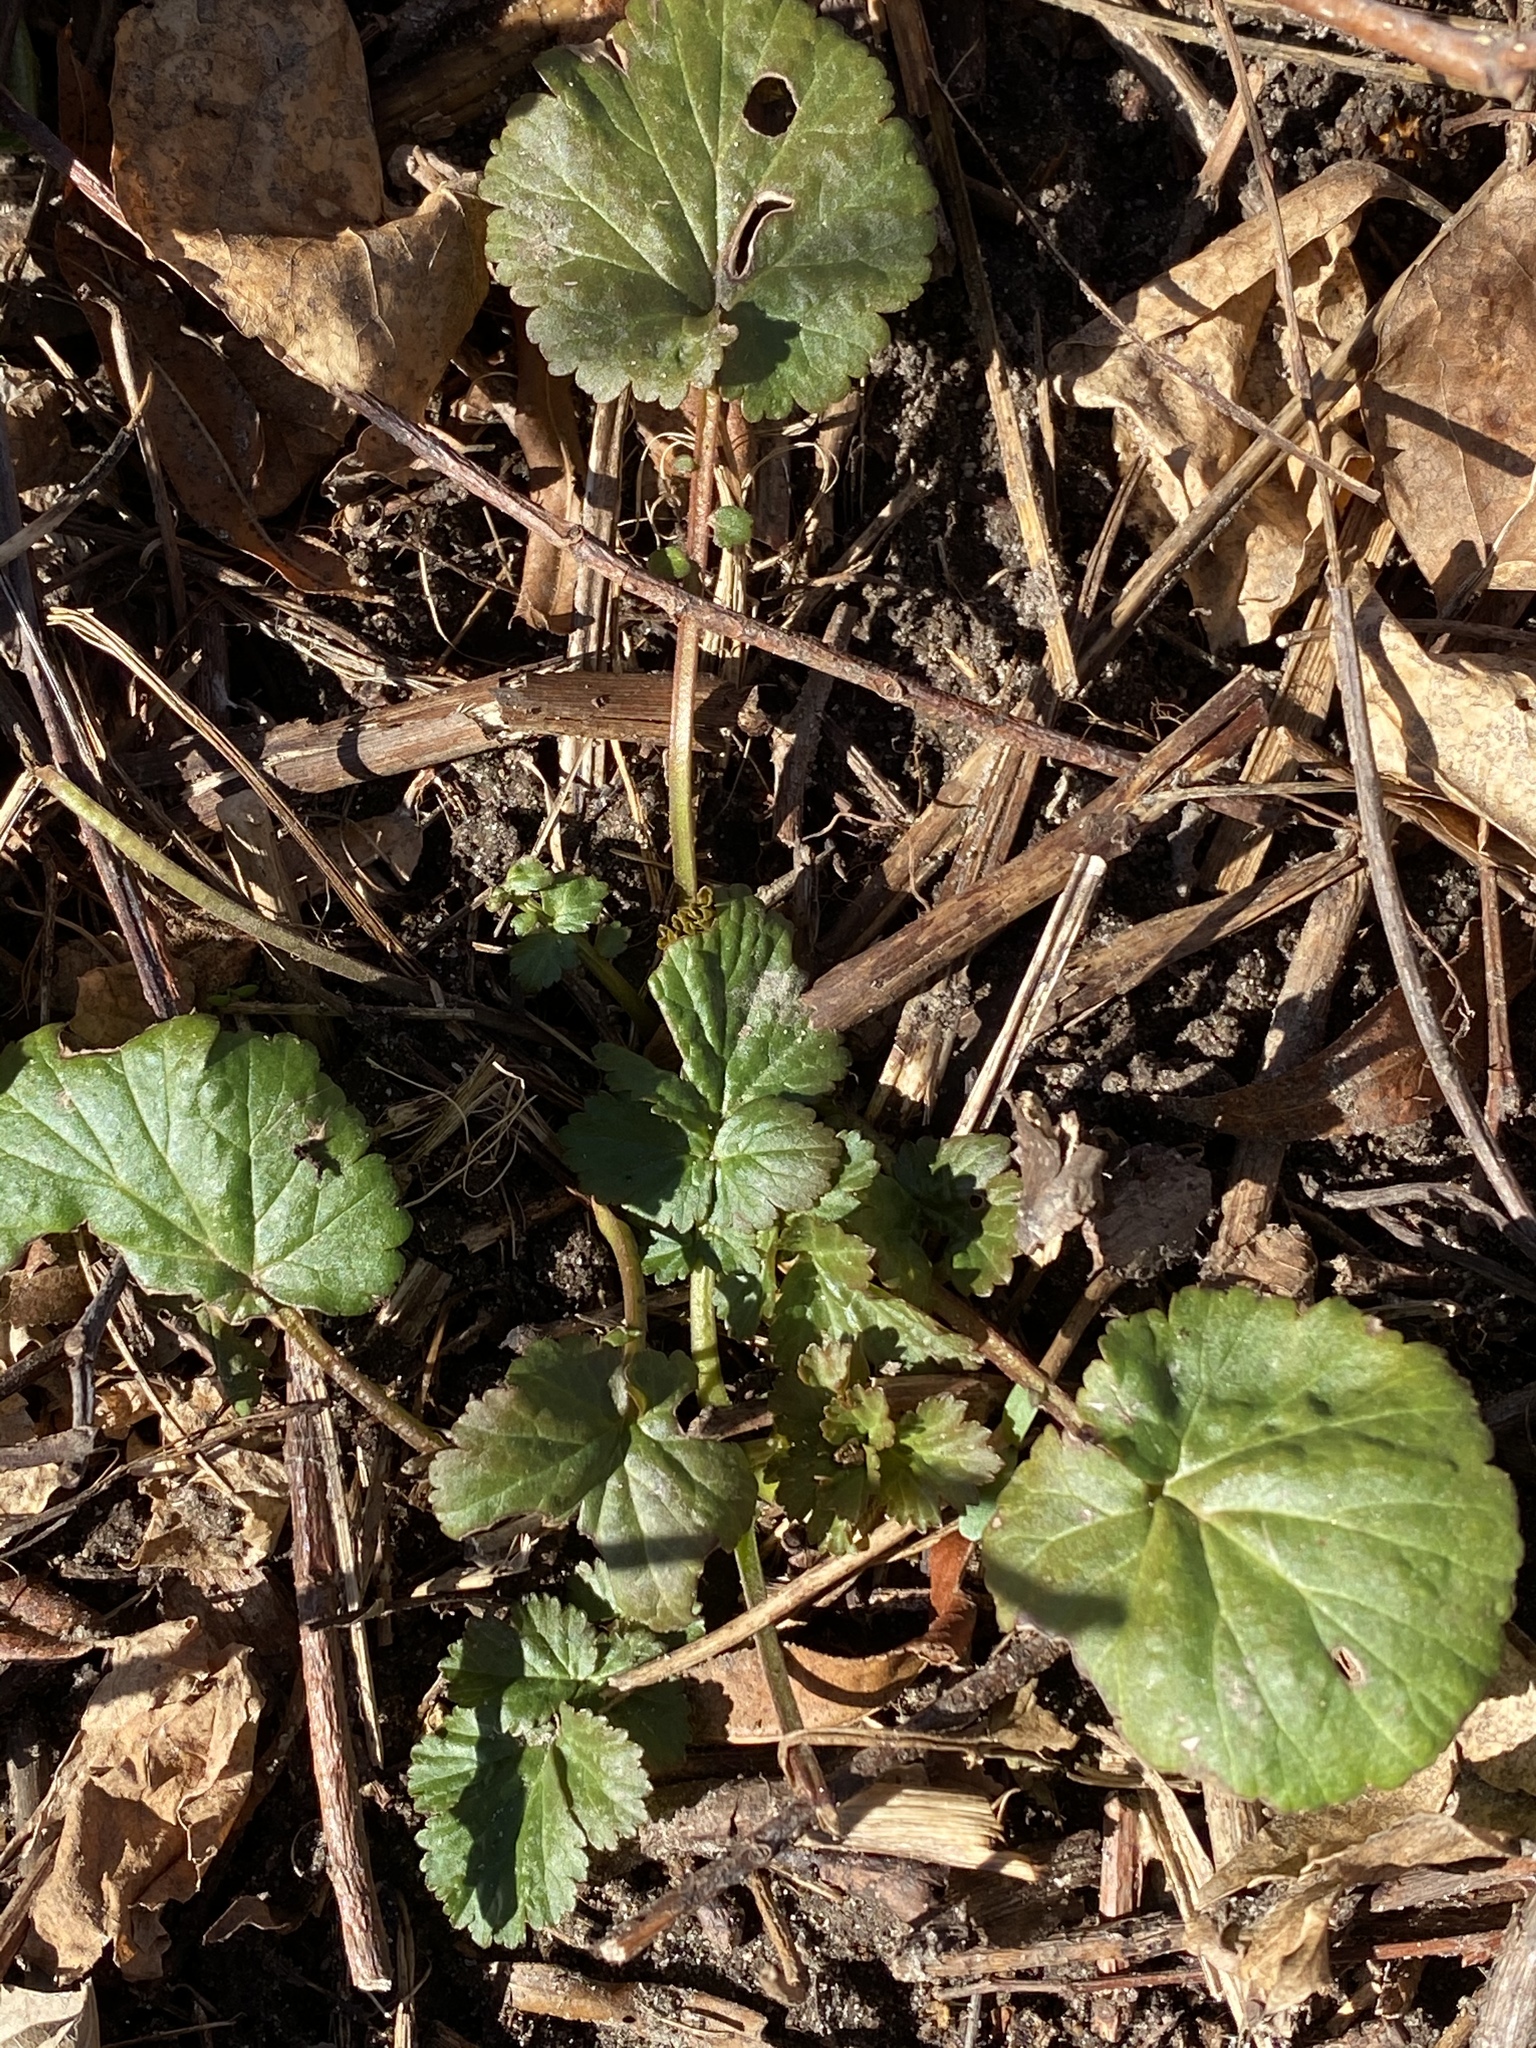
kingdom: Plantae
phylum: Tracheophyta
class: Magnoliopsida
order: Rosales
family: Rosaceae
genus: Geum
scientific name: Geum canadense
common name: White avens
